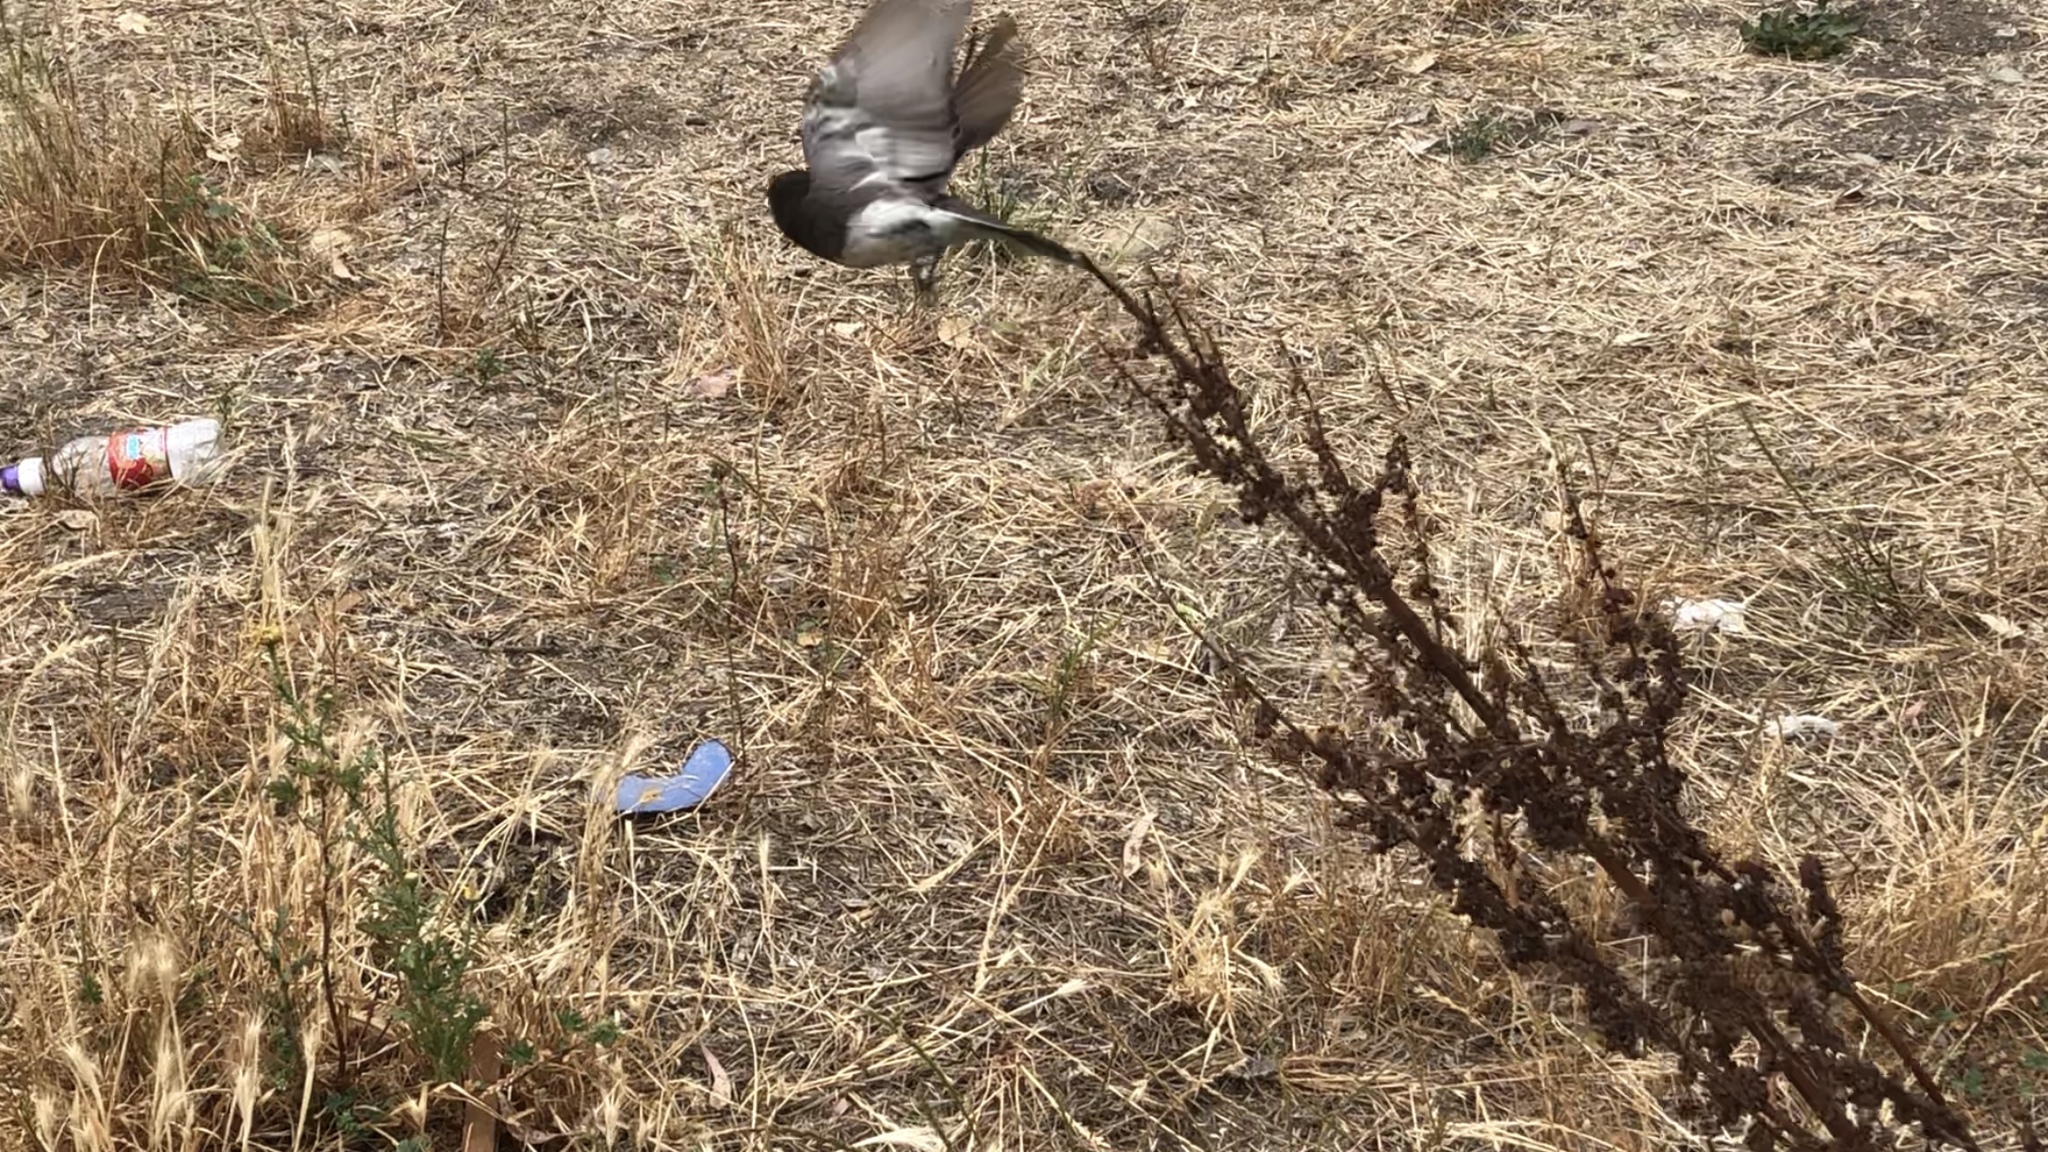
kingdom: Animalia
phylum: Chordata
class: Aves
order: Passeriformes
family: Tyrannidae
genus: Sayornis
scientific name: Sayornis nigricans
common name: Black phoebe
